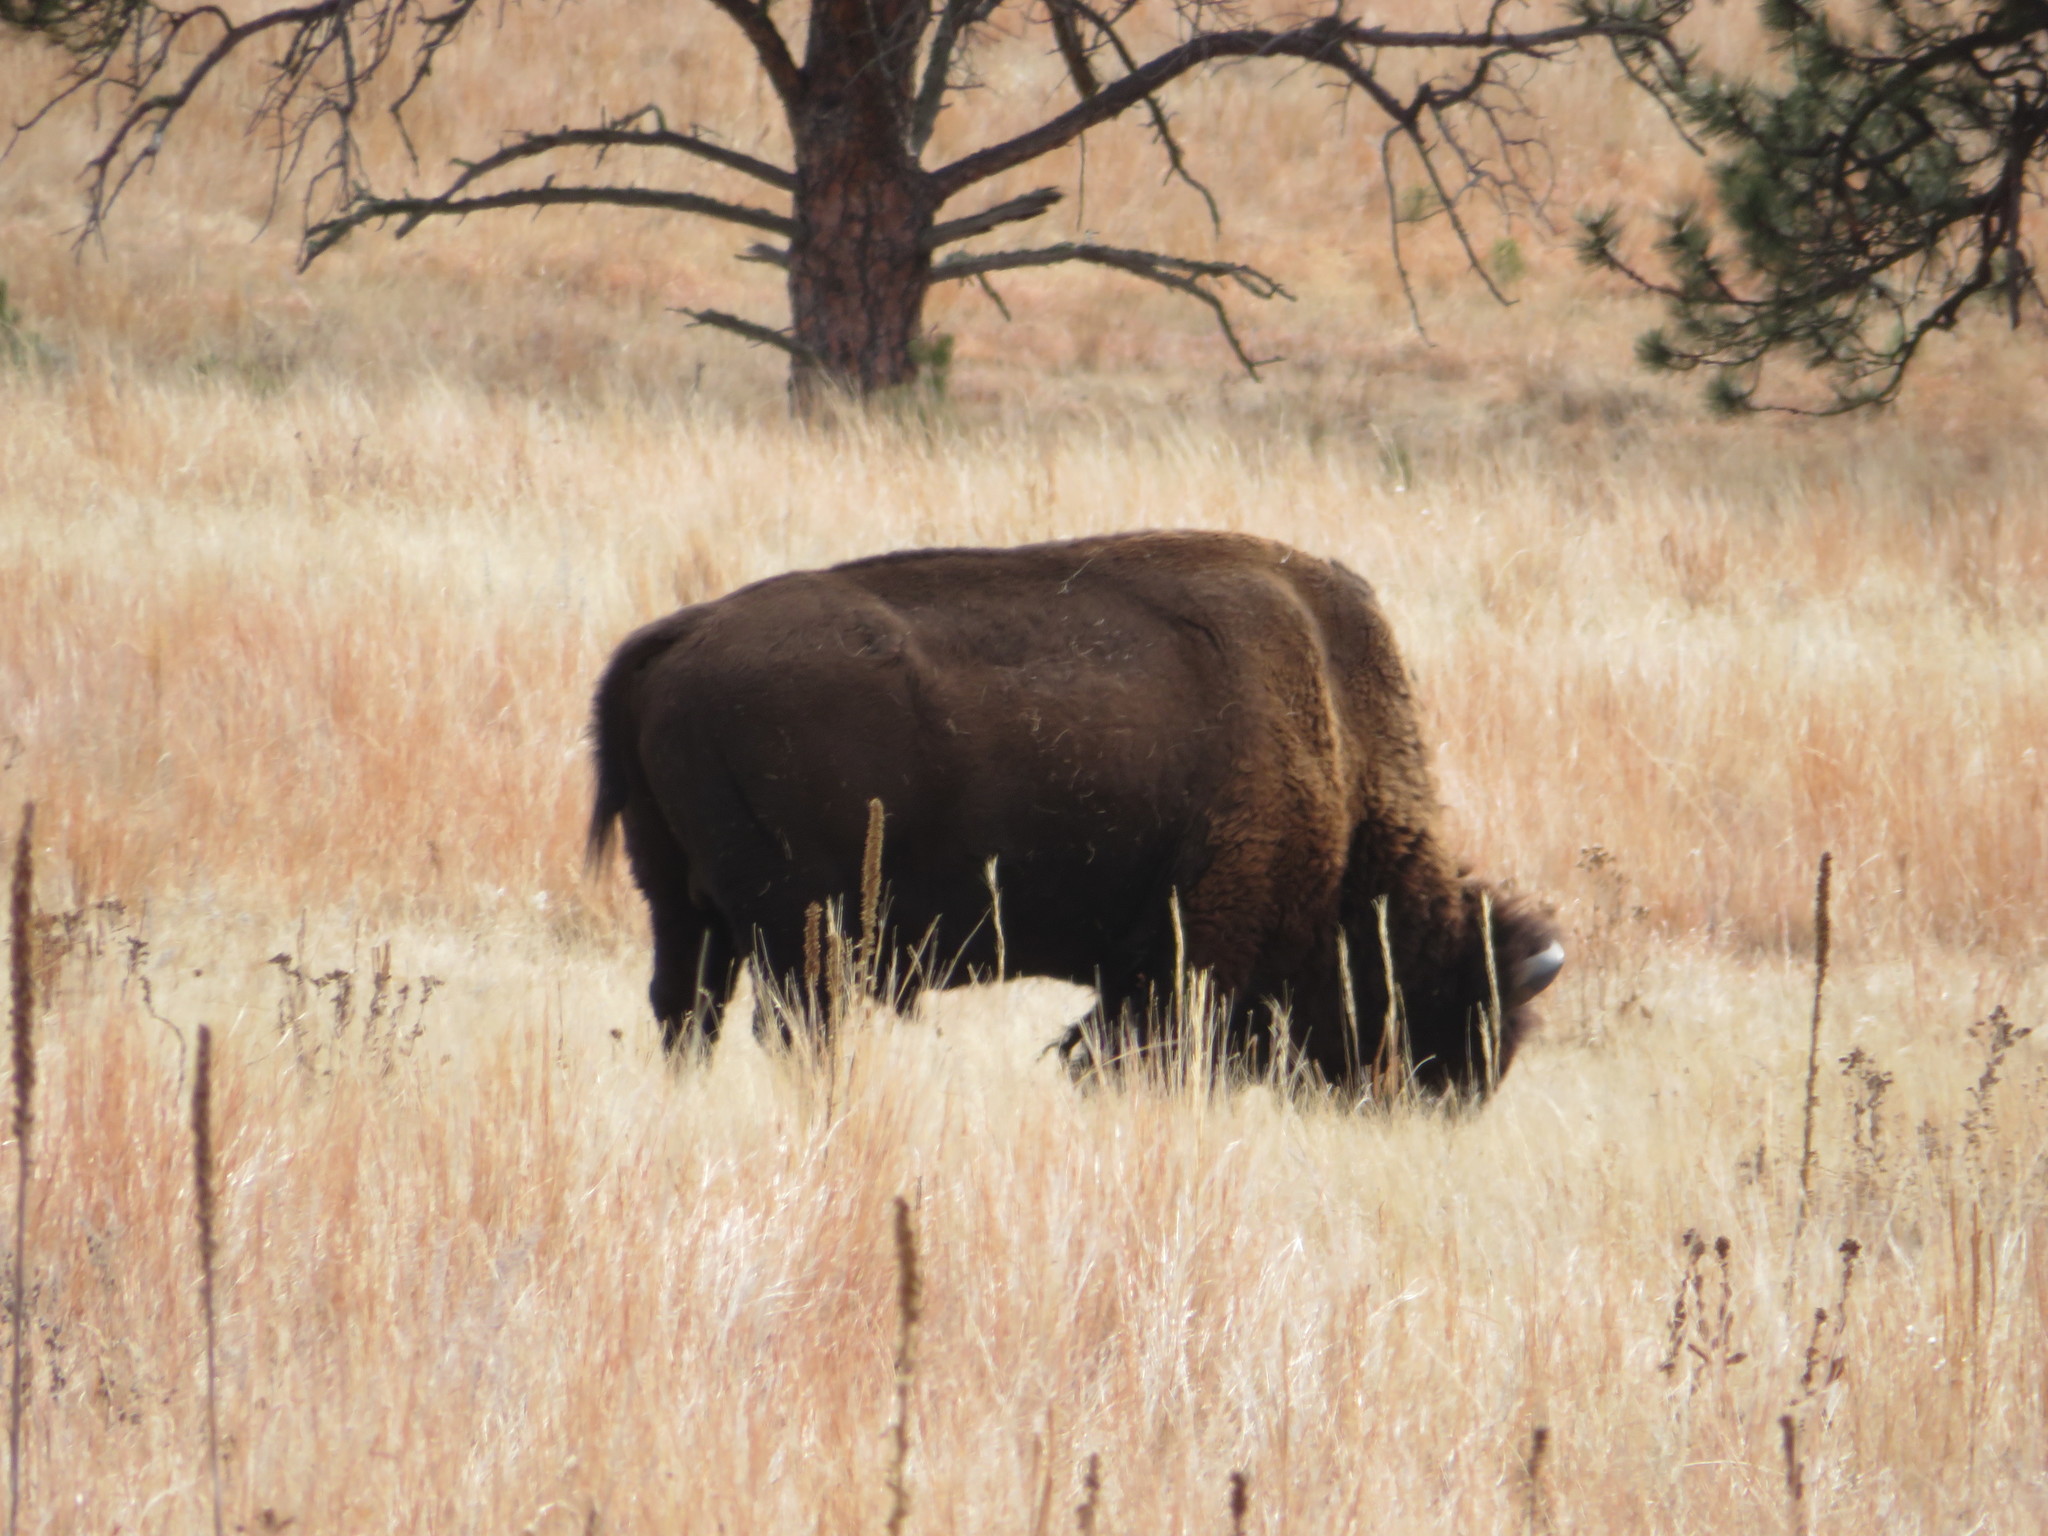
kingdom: Animalia
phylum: Chordata
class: Mammalia
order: Artiodactyla
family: Bovidae
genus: Bison
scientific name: Bison bison
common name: American bison
